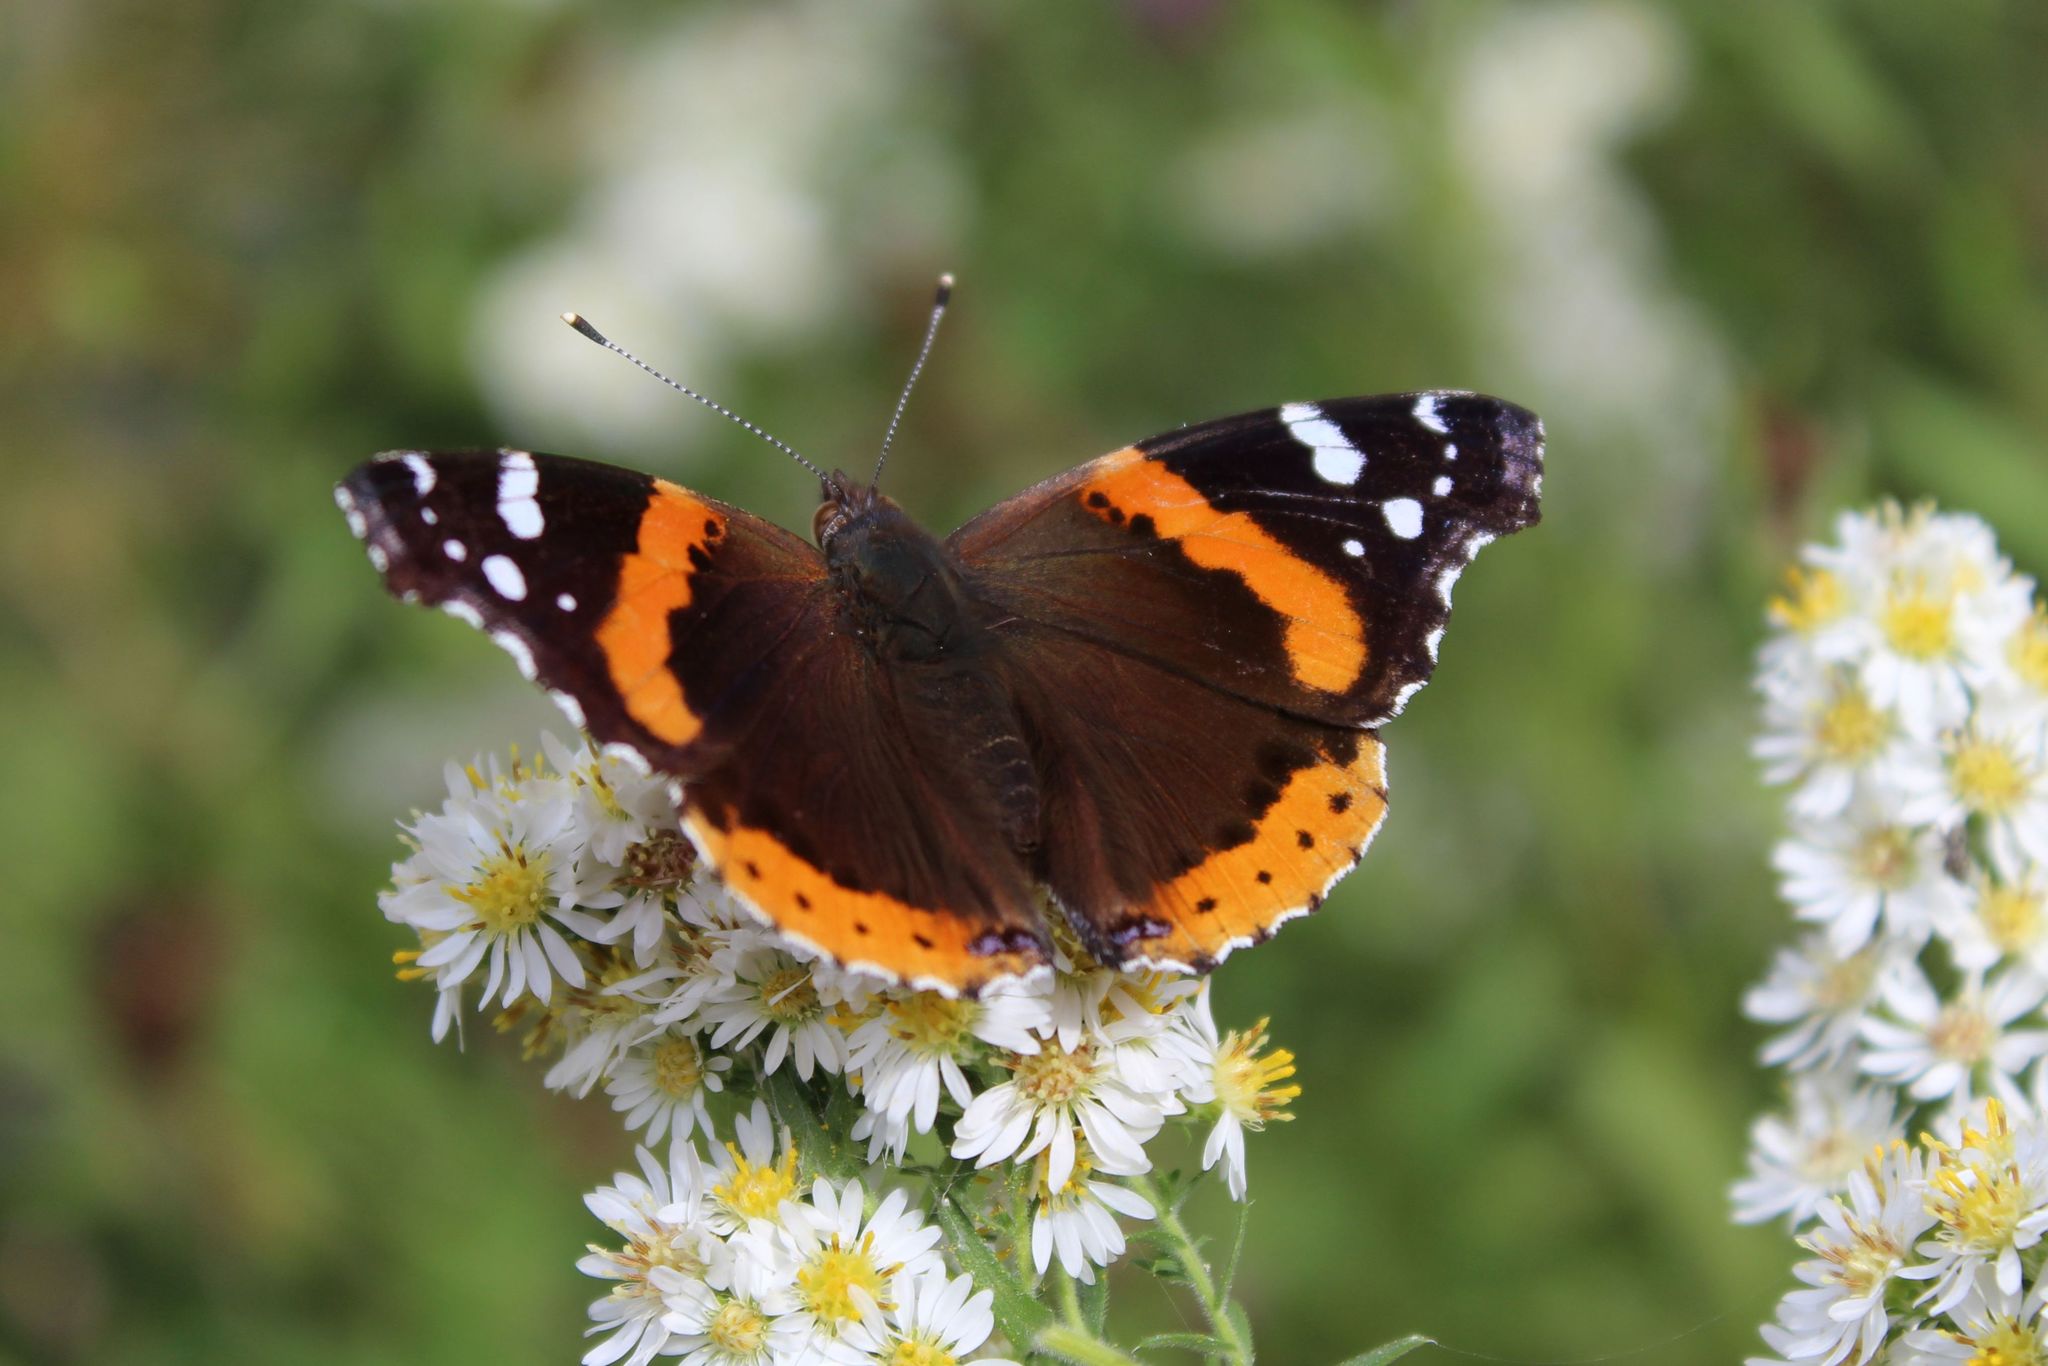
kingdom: Animalia
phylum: Arthropoda
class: Insecta
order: Lepidoptera
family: Nymphalidae
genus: Vanessa
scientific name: Vanessa atalanta
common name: Red admiral
